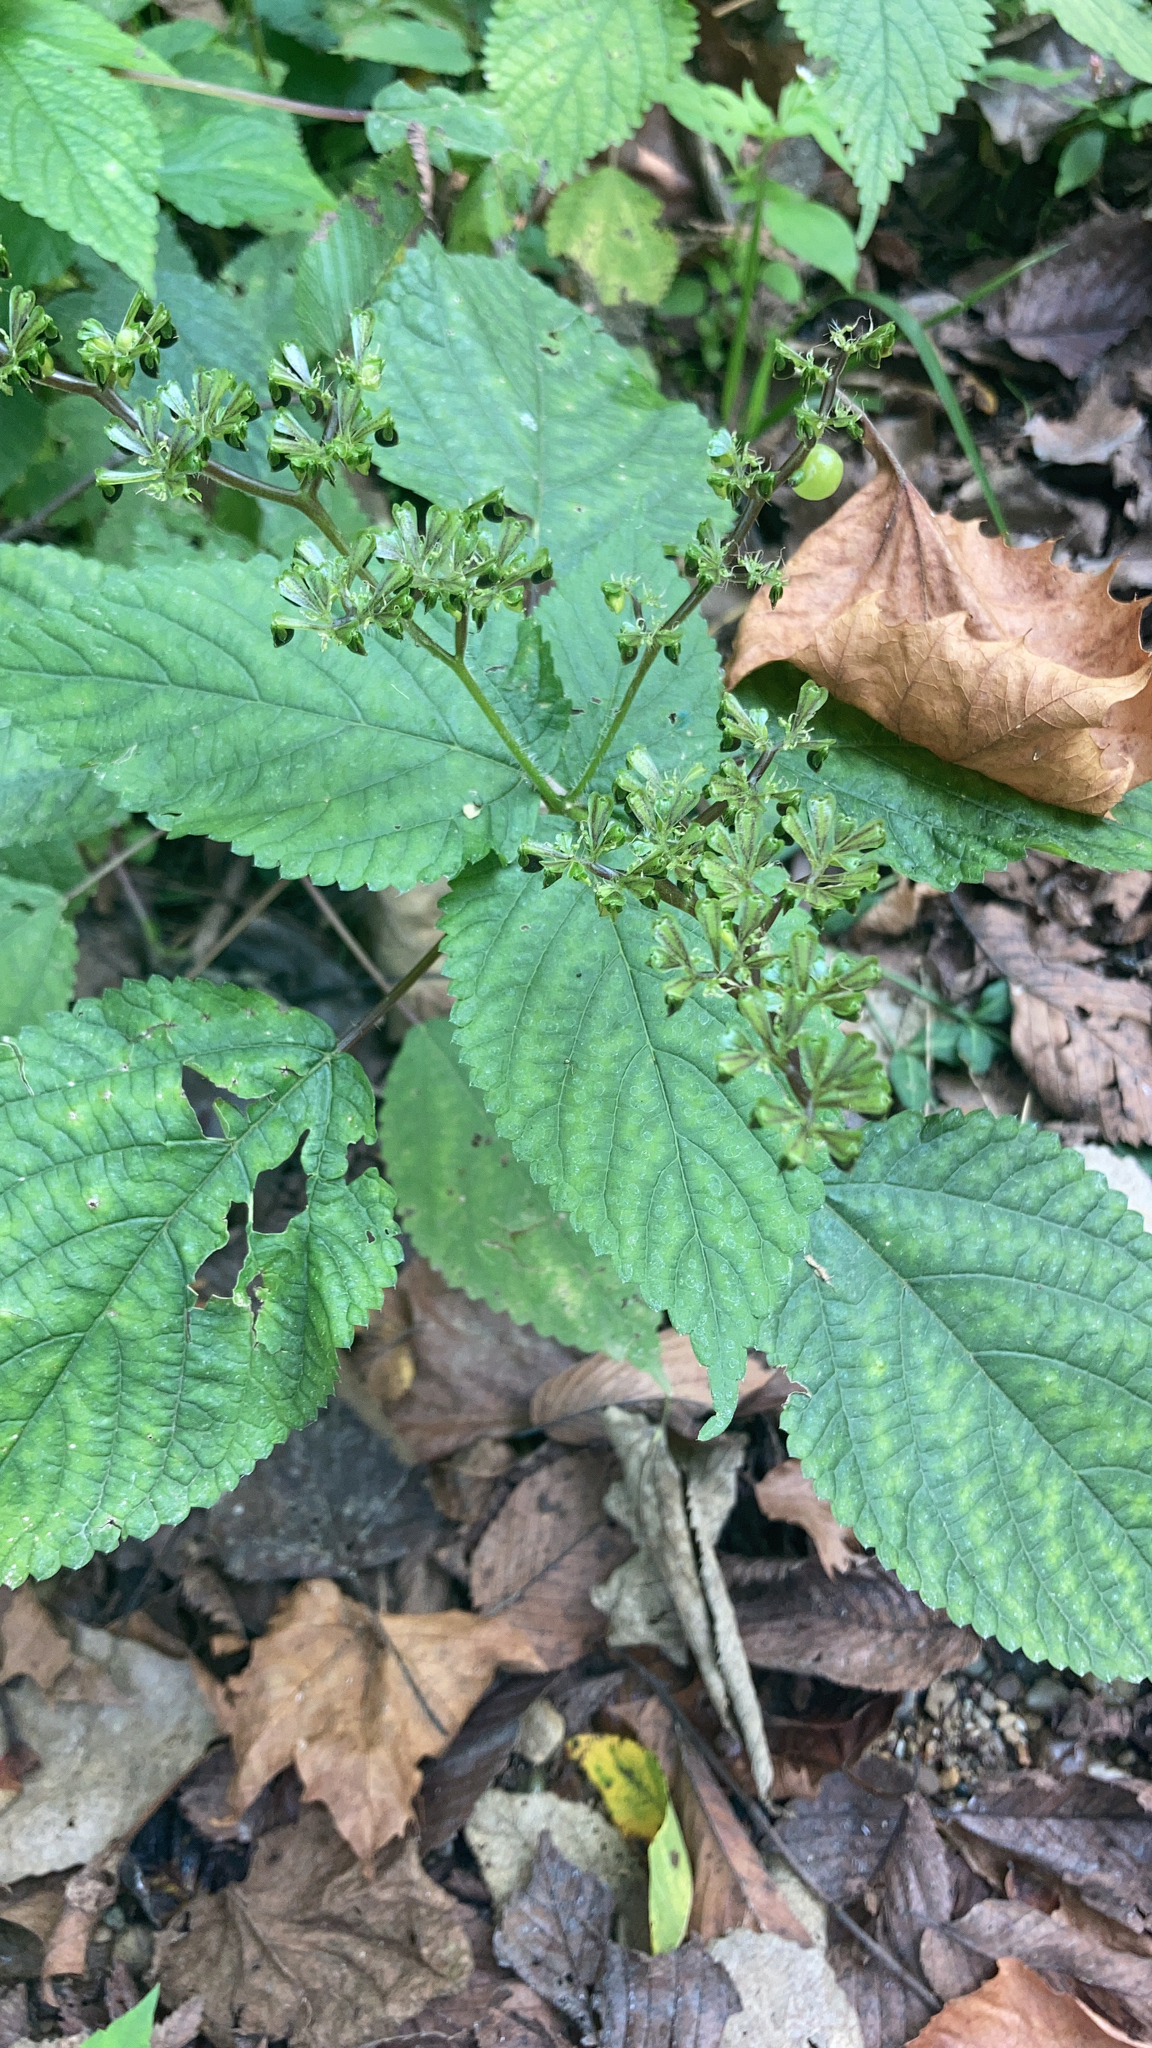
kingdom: Plantae
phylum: Tracheophyta
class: Magnoliopsida
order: Rosales
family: Urticaceae
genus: Laportea
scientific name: Laportea canadensis
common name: Canada nettle
